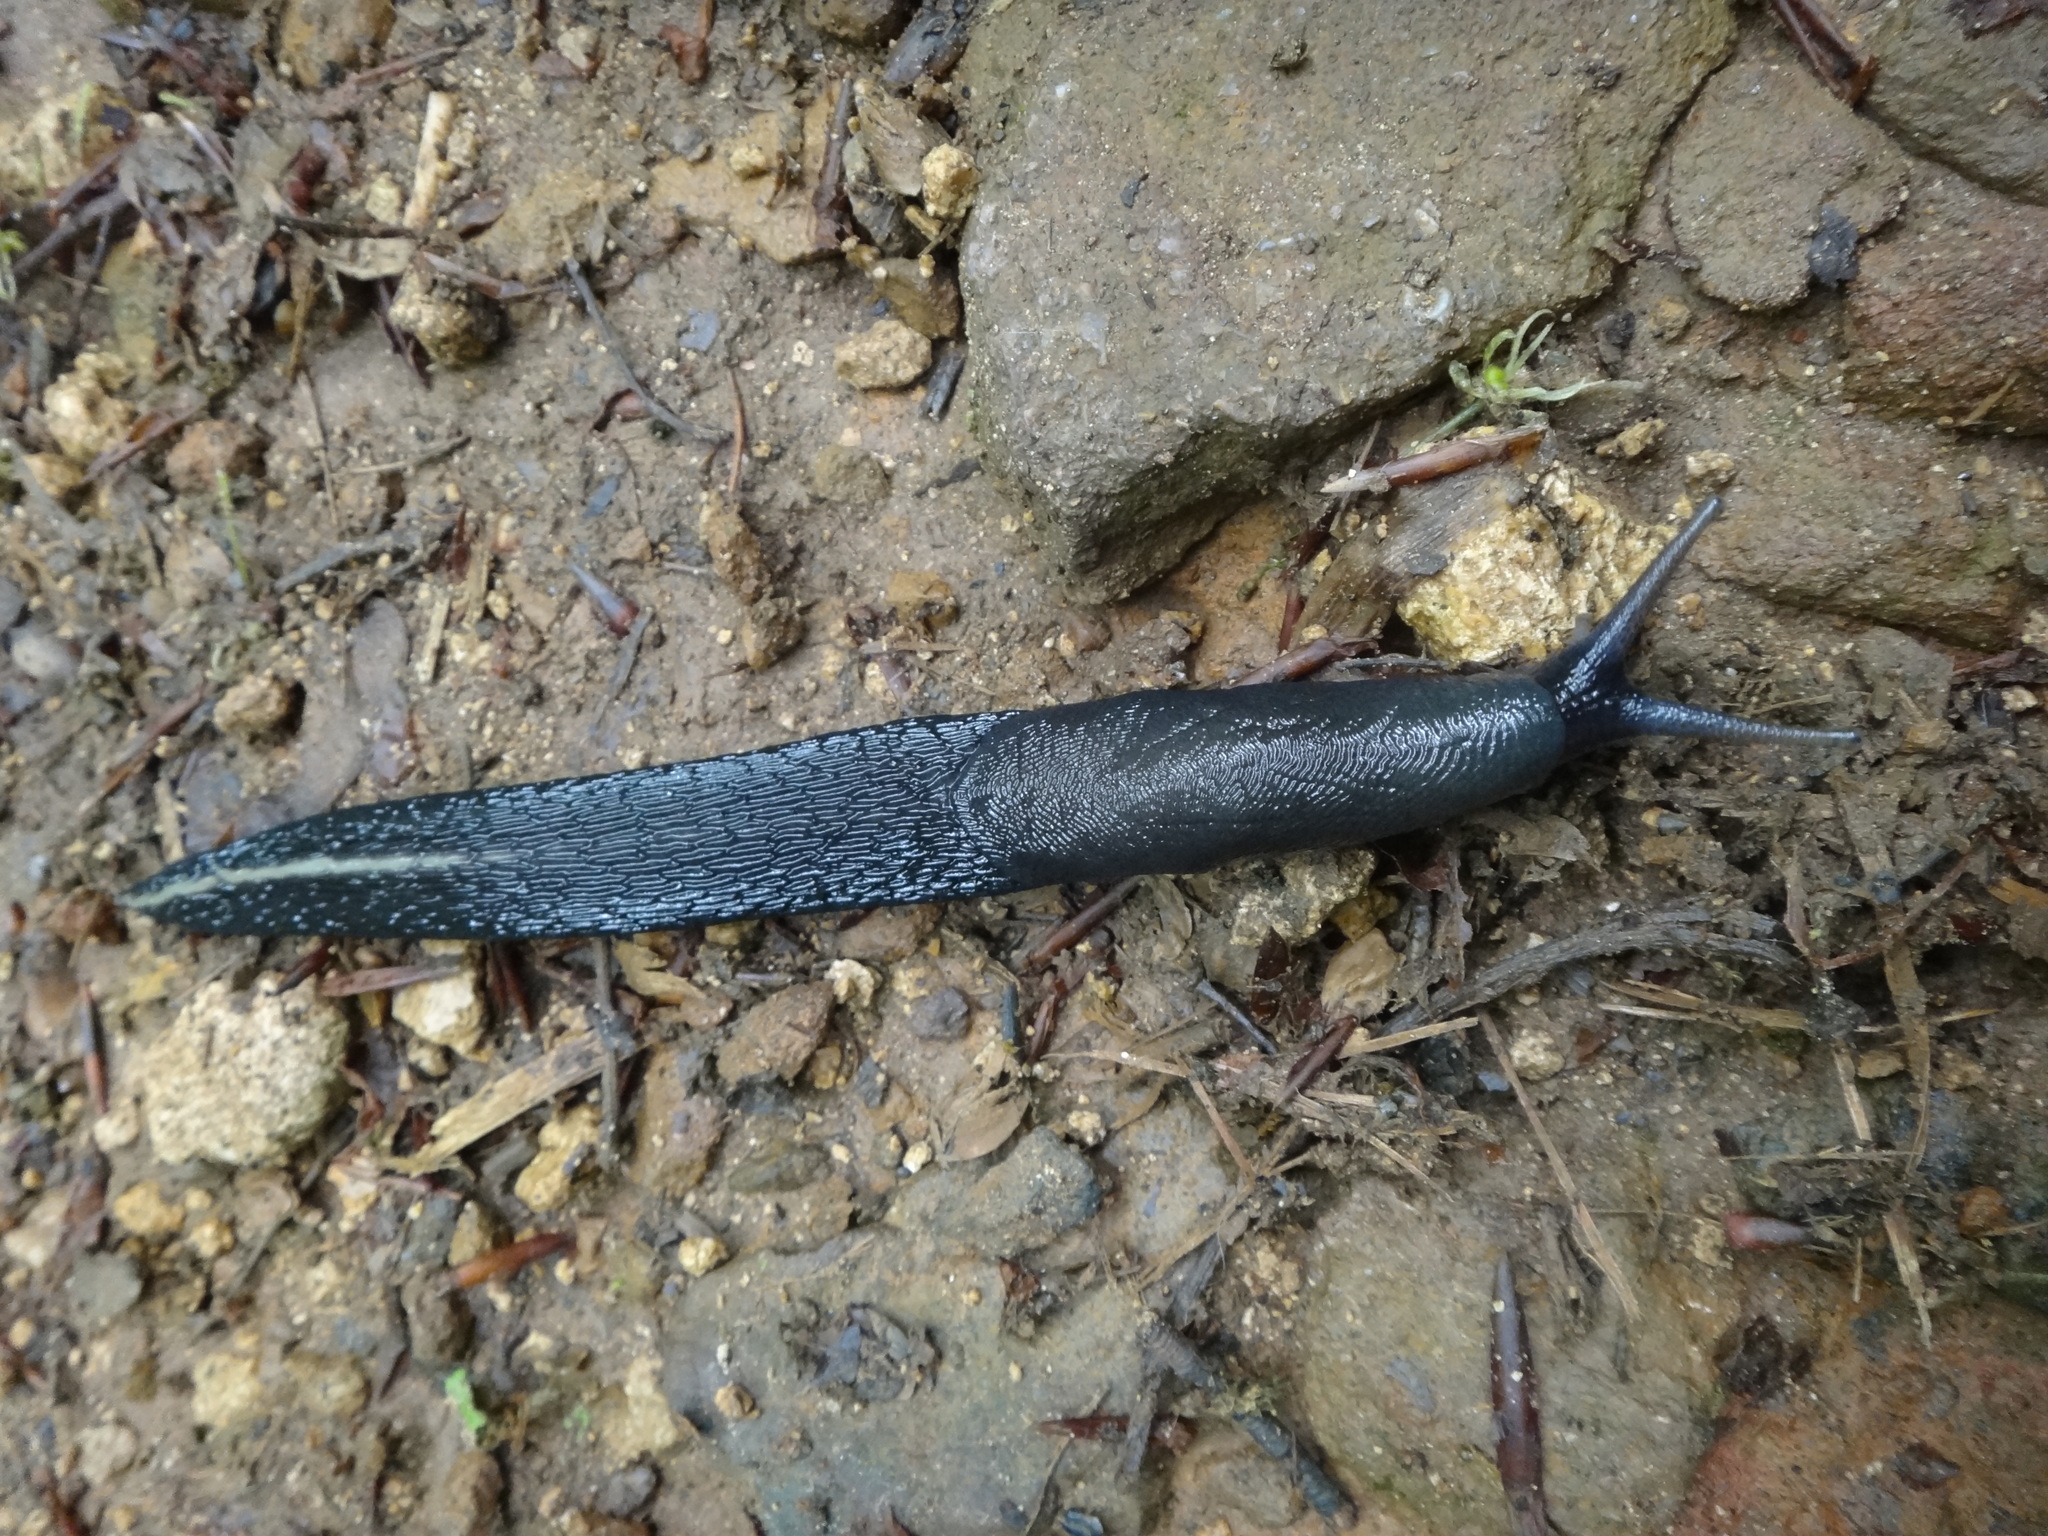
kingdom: Animalia
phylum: Mollusca
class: Gastropoda
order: Stylommatophora
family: Limacidae
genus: Limax
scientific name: Limax cinereoniger
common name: Ash-black slug
